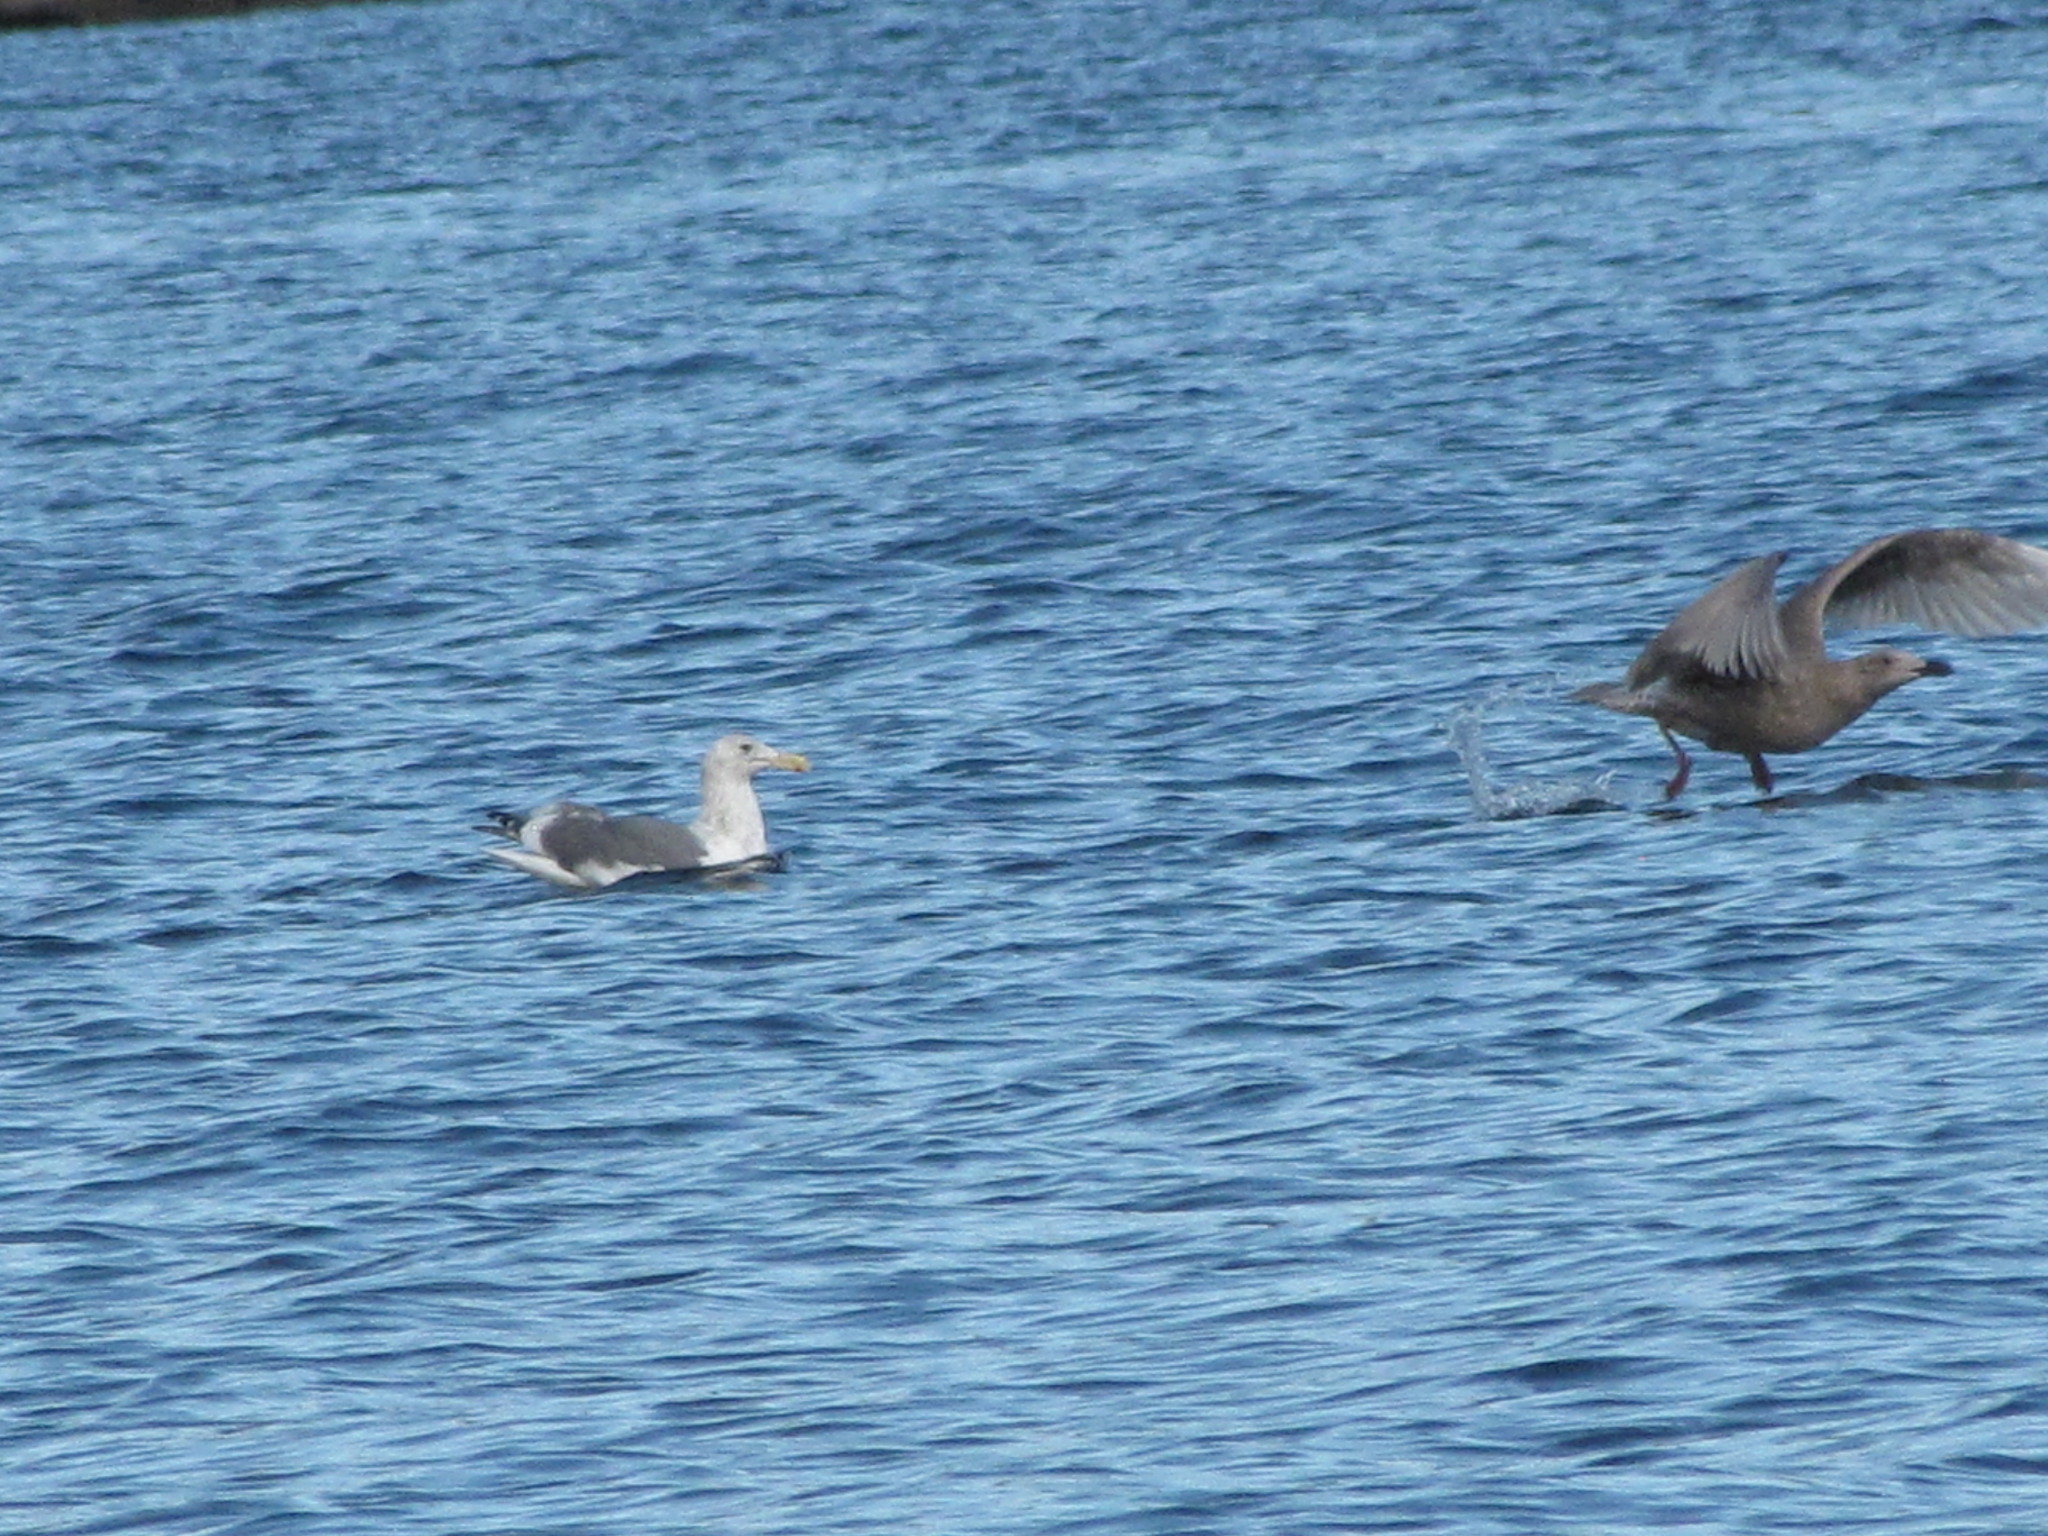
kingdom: Animalia
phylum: Chordata
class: Aves
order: Charadriiformes
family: Laridae
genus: Larus
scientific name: Larus
